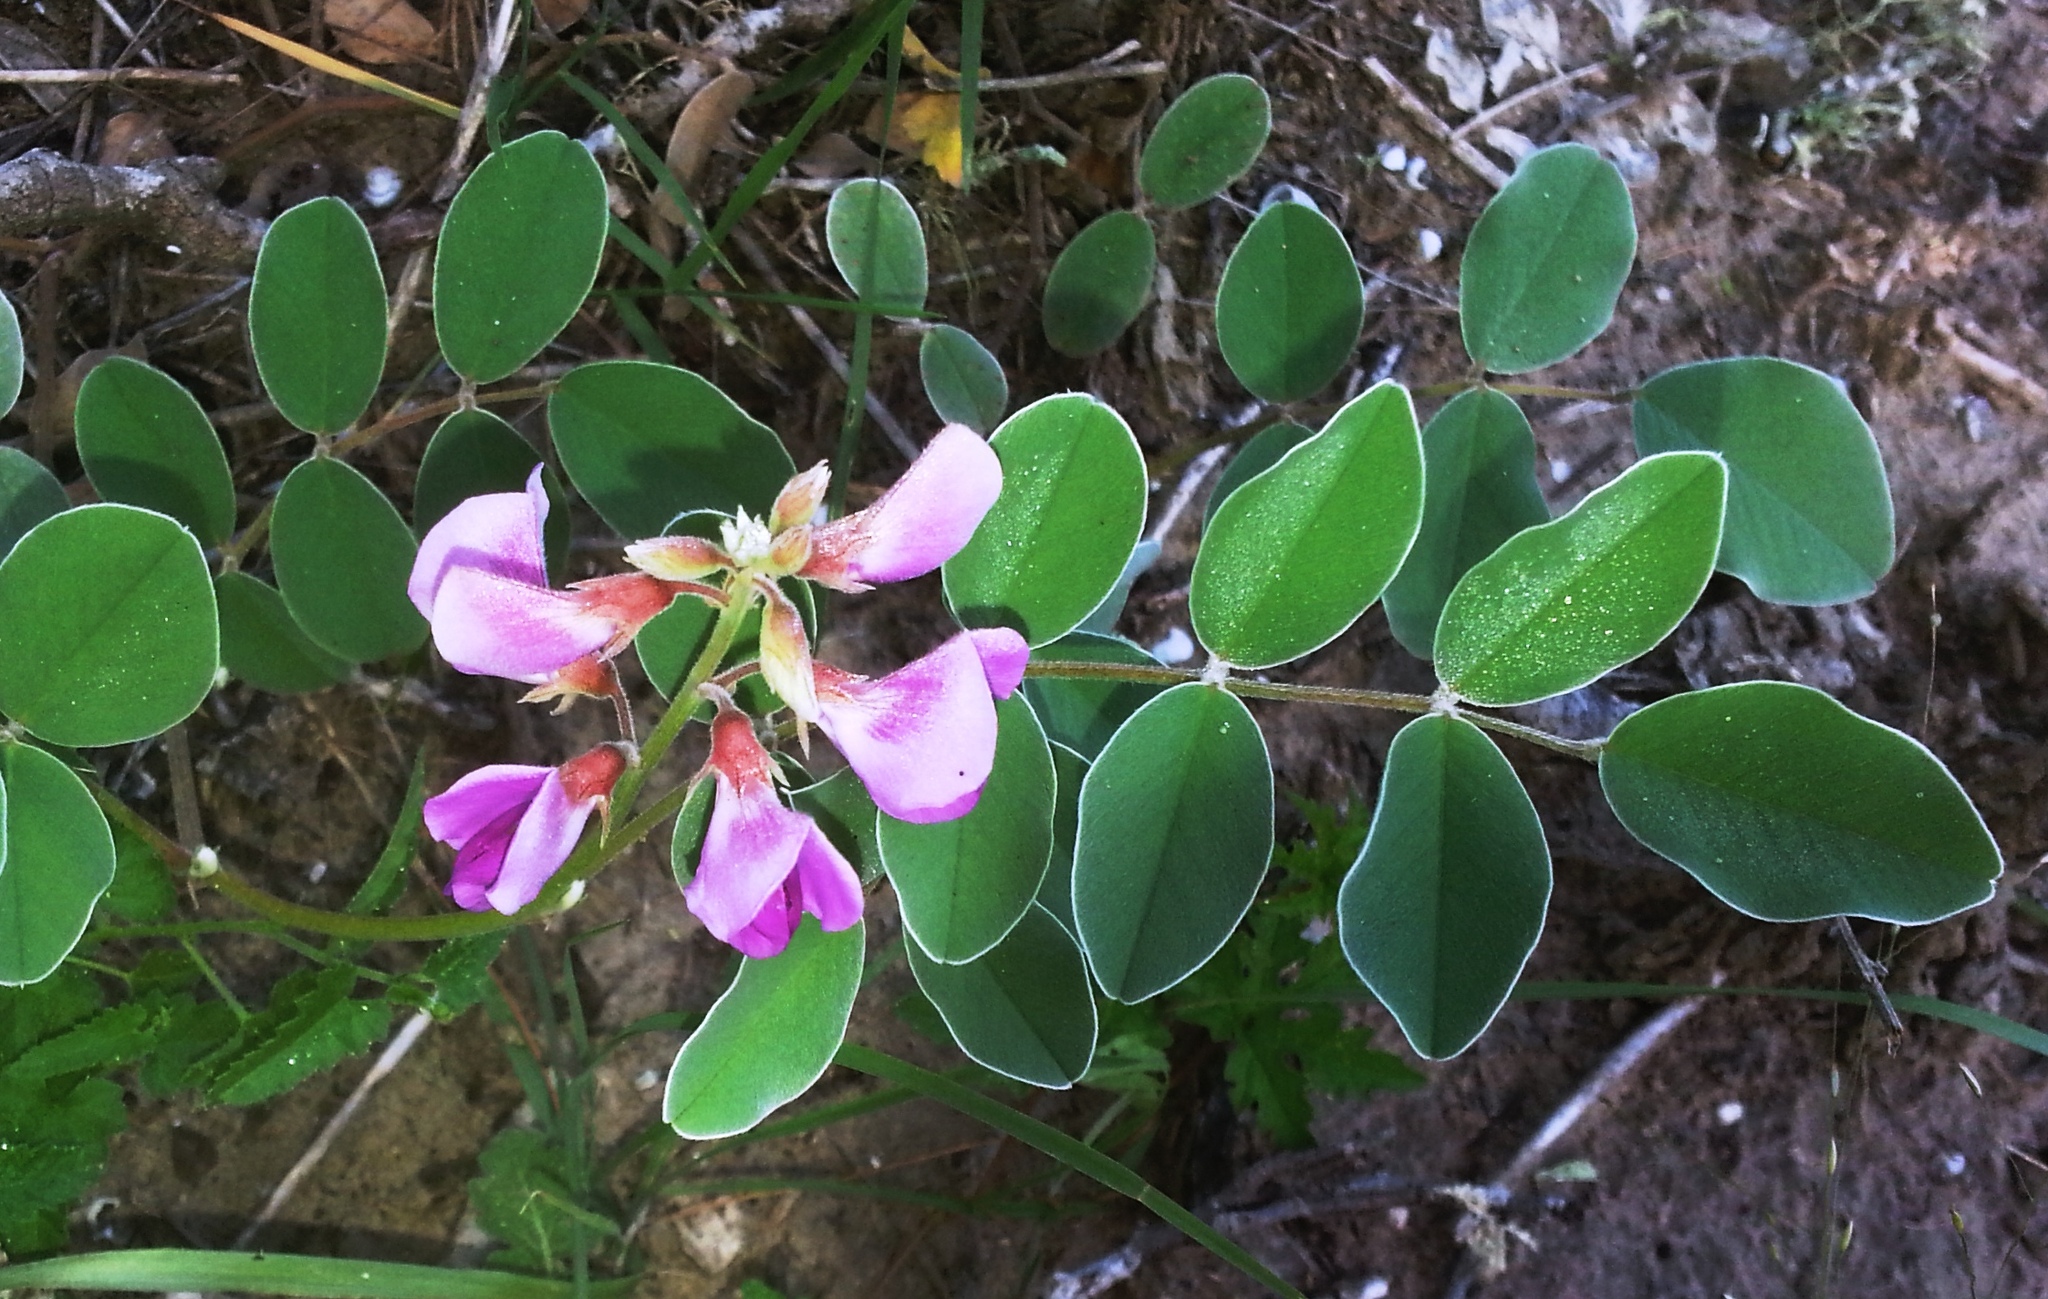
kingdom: Plantae
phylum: Tracheophyta
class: Magnoliopsida
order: Fabales
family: Fabaceae
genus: Tephrosia
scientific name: Tephrosia lindheimeri
